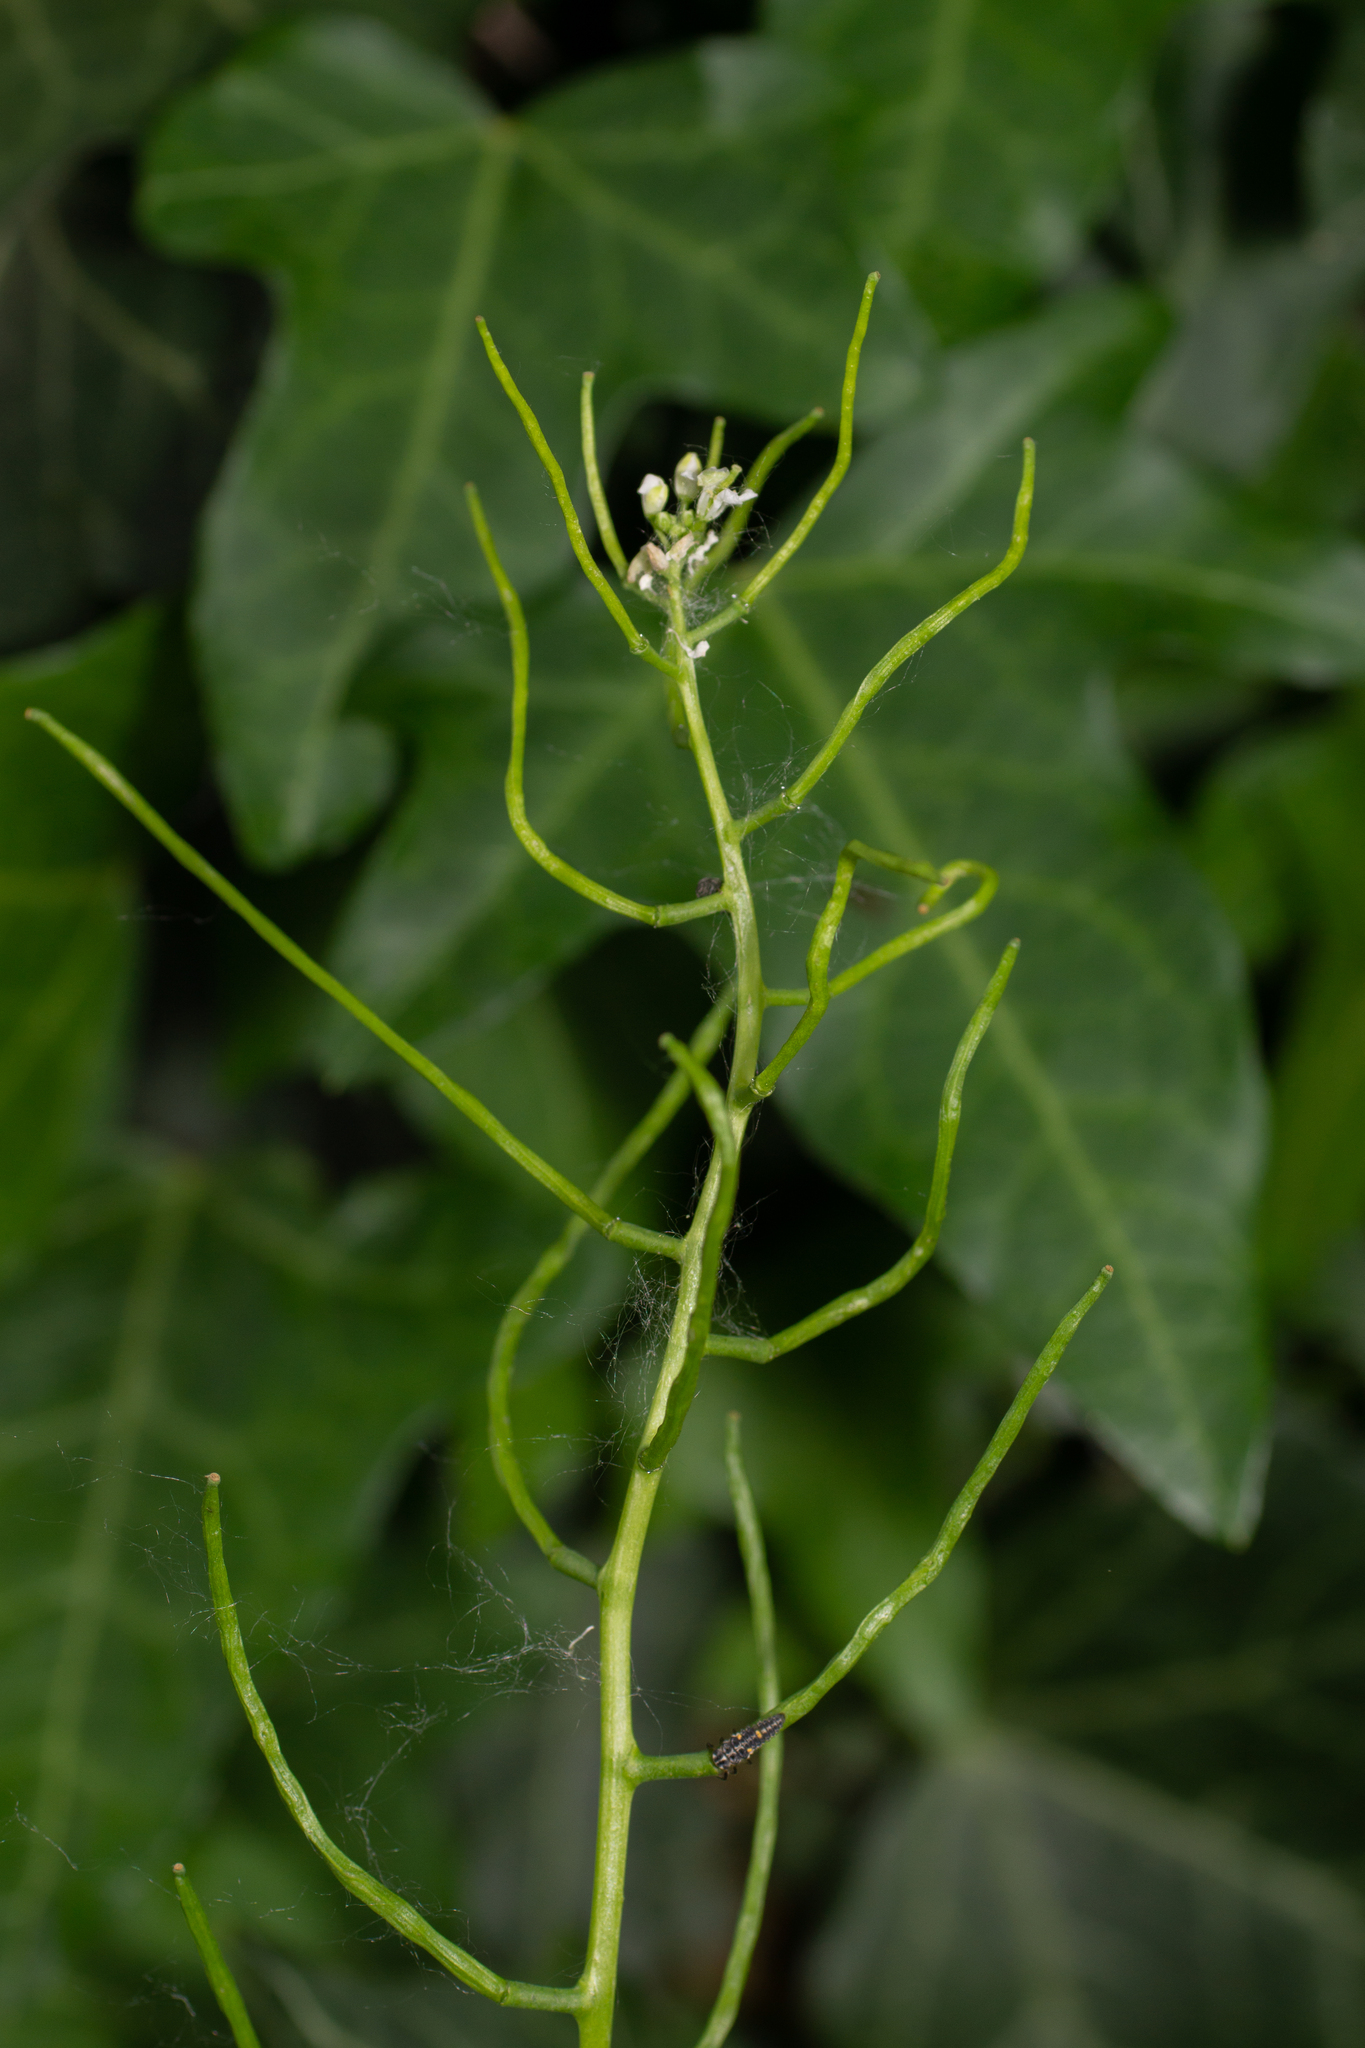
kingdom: Plantae
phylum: Tracheophyta
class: Magnoliopsida
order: Brassicales
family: Brassicaceae
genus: Alliaria
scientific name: Alliaria petiolata
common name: Garlic mustard
